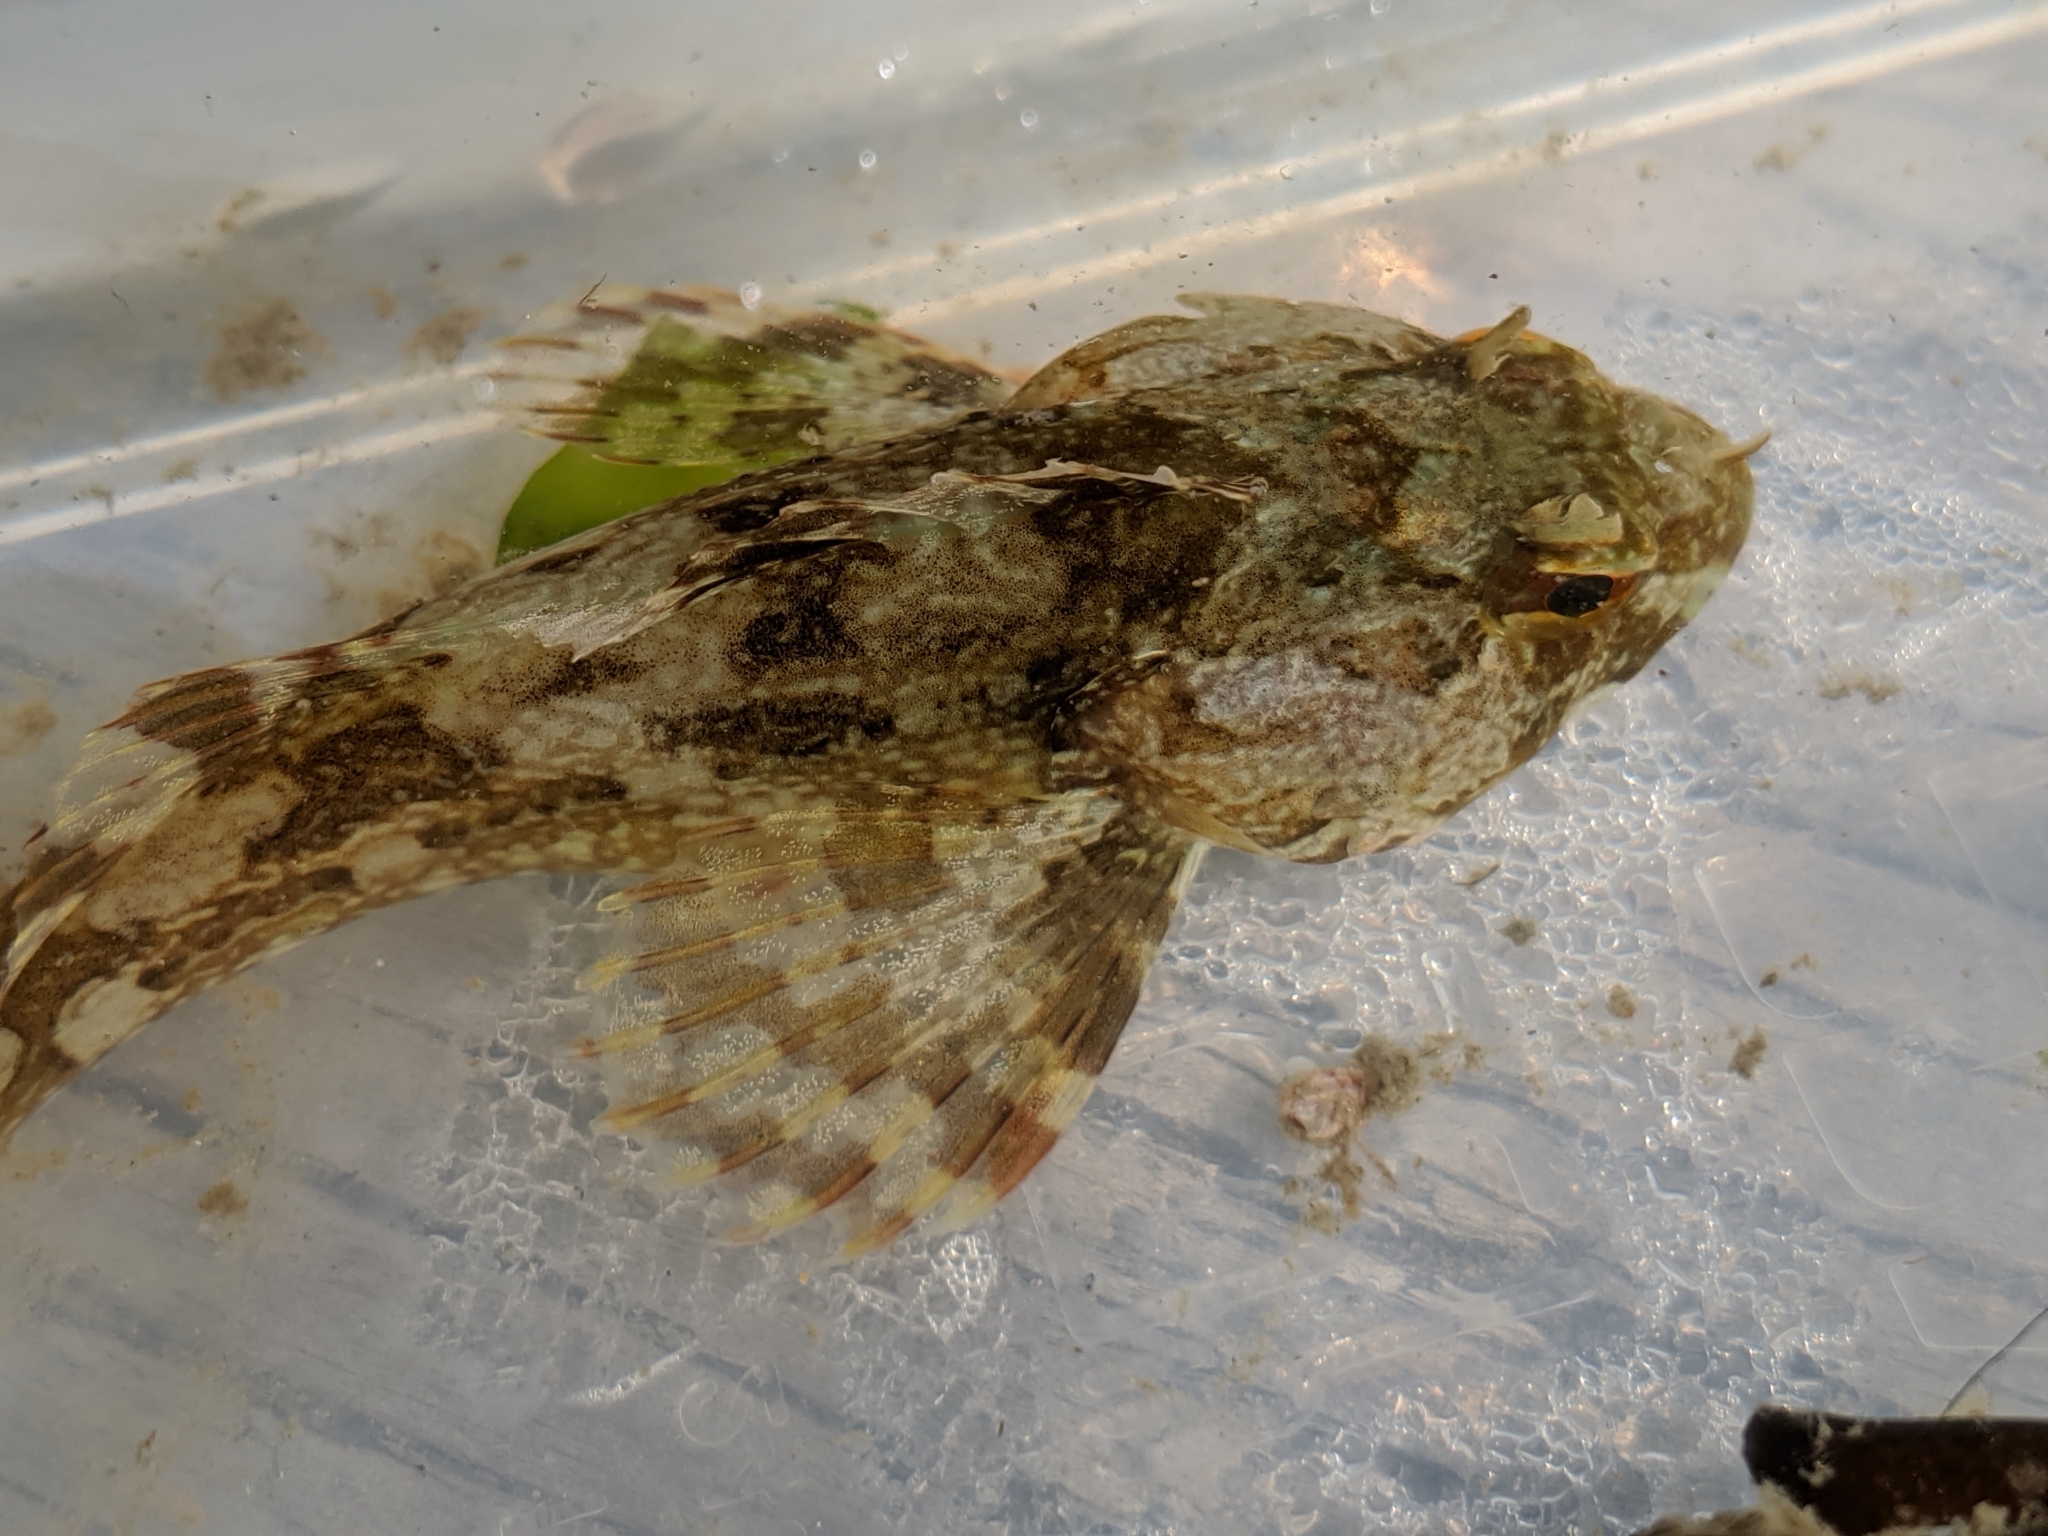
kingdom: Animalia
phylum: Chordata
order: Scorpaeniformes
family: Cottidae
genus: Scorpaenichthys
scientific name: Scorpaenichthys marmoratus
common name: Cabezon
